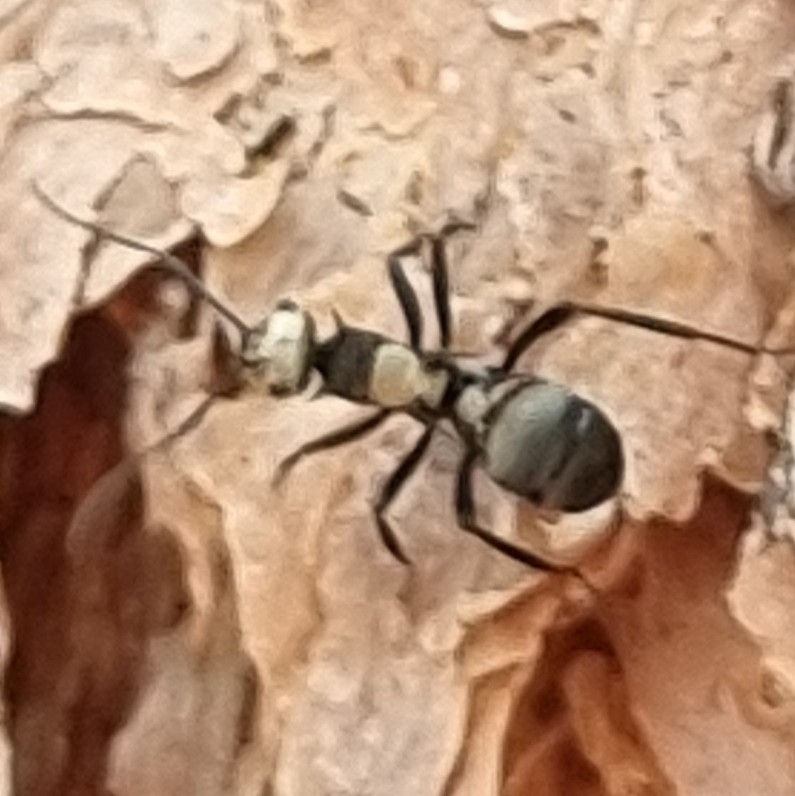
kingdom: Animalia
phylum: Arthropoda
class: Insecta
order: Hymenoptera
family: Formicidae
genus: Polyrhachis
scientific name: Polyrhachis daemeli
